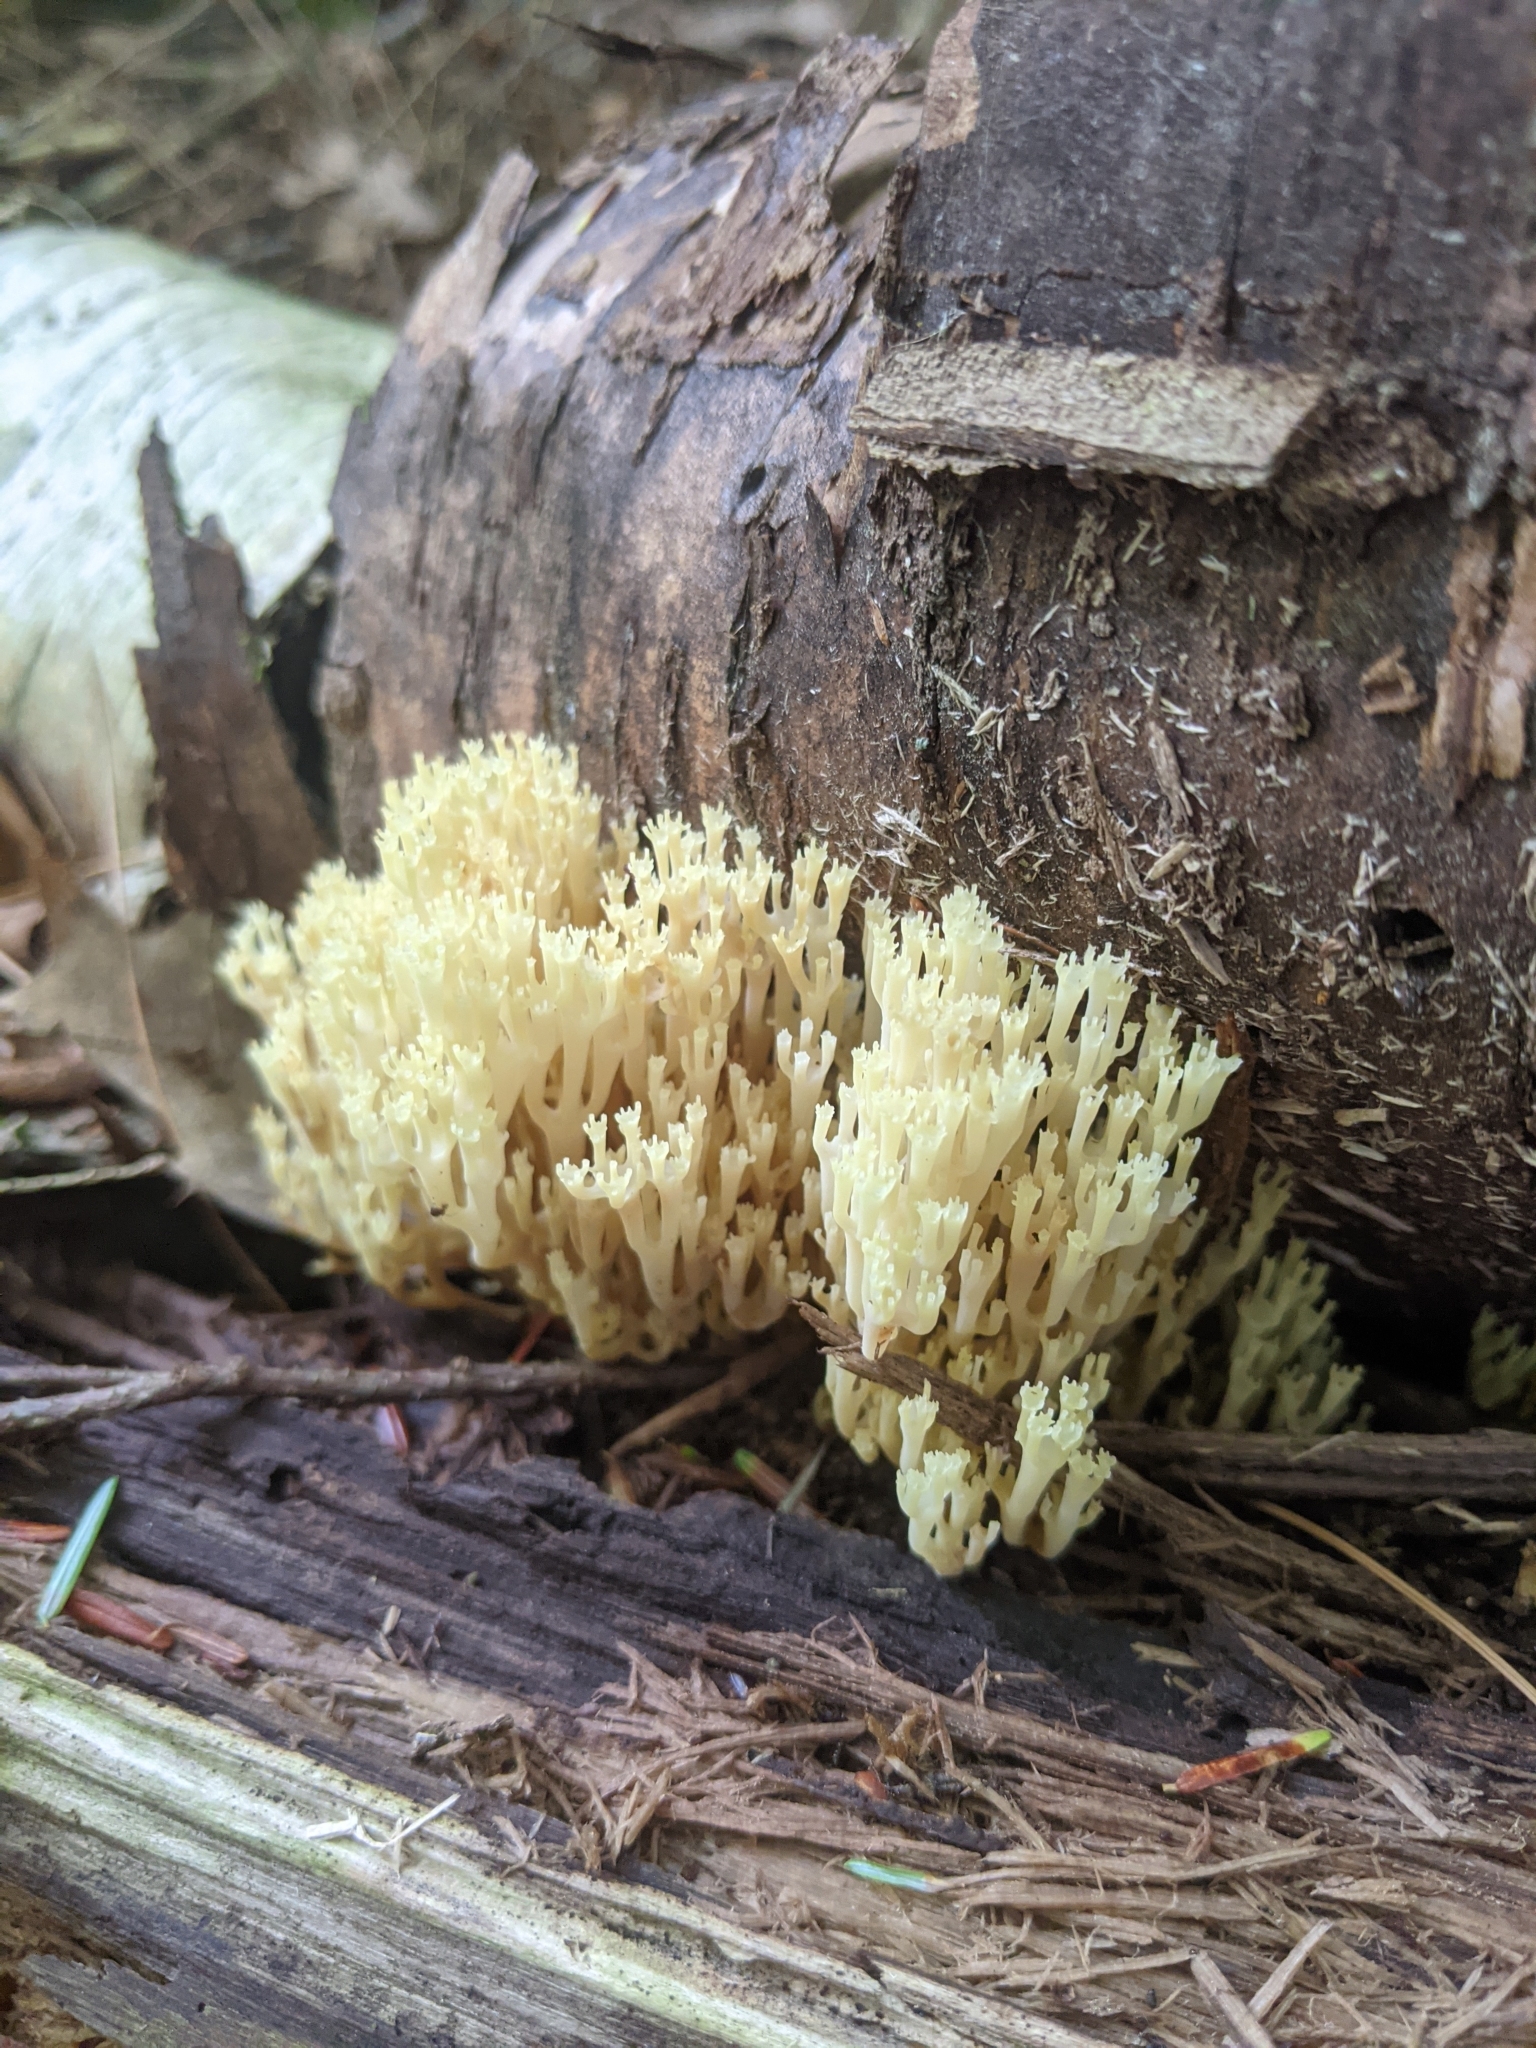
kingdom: Fungi
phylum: Basidiomycota
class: Agaricomycetes
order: Russulales
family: Auriscalpiaceae
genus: Artomyces
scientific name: Artomyces pyxidatus
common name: Crown-tipped coral fungus
